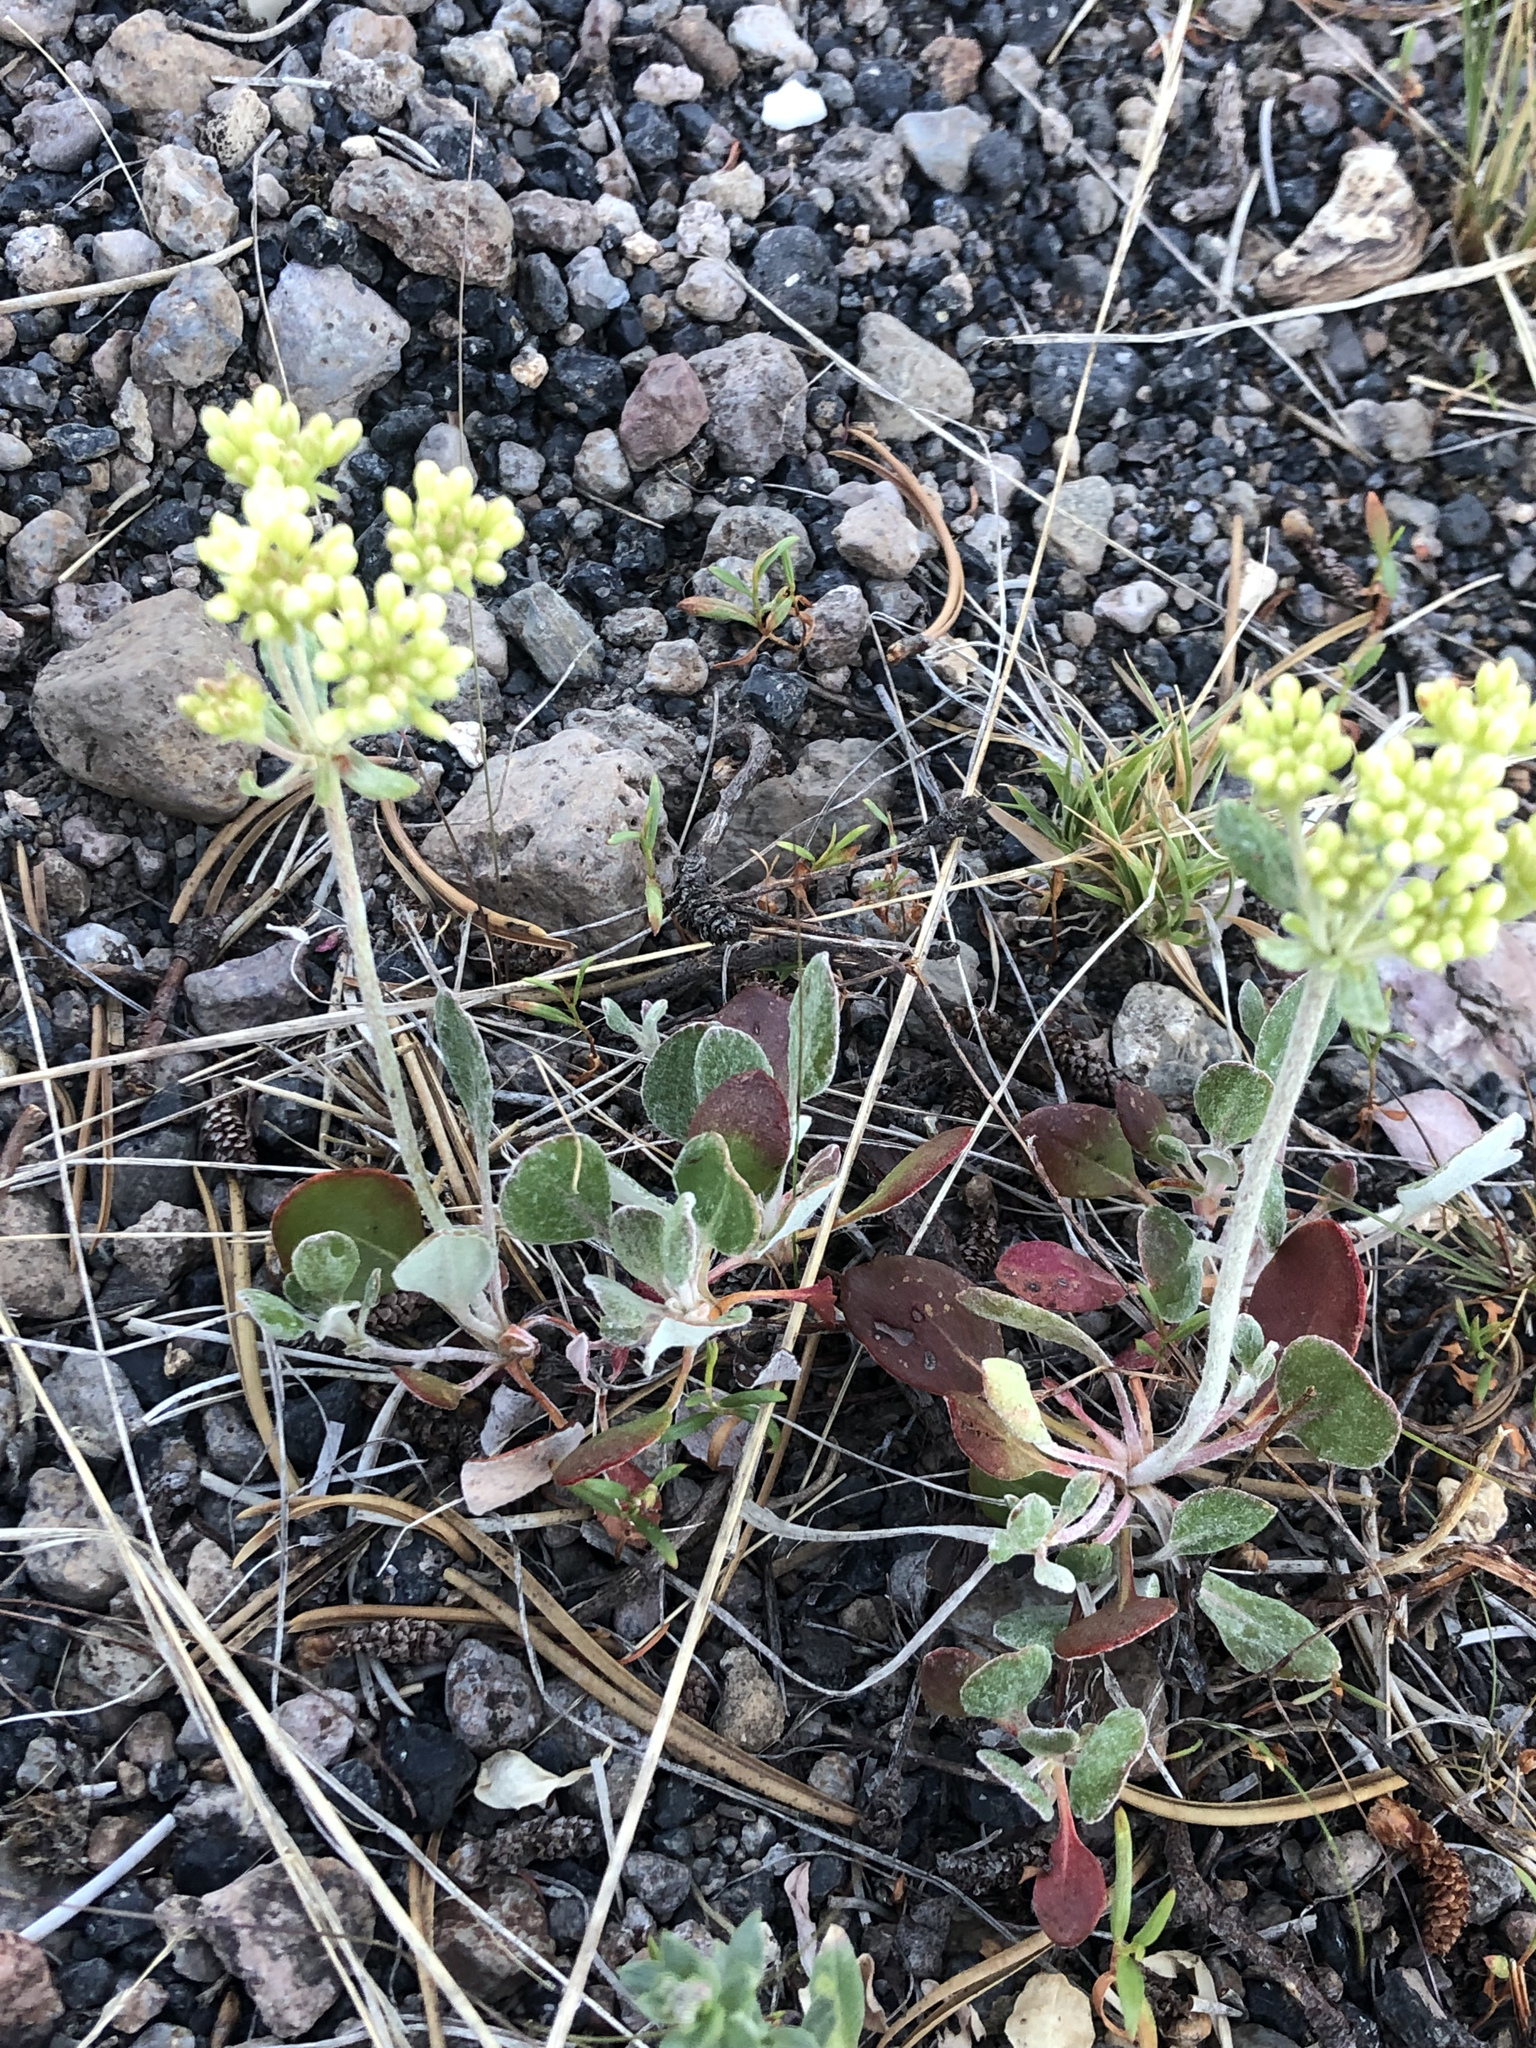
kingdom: Plantae
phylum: Tracheophyta
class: Magnoliopsida
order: Caryophyllales
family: Polygonaceae
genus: Eriogonum
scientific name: Eriogonum umbellatum
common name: Sulfur-buckwheat
